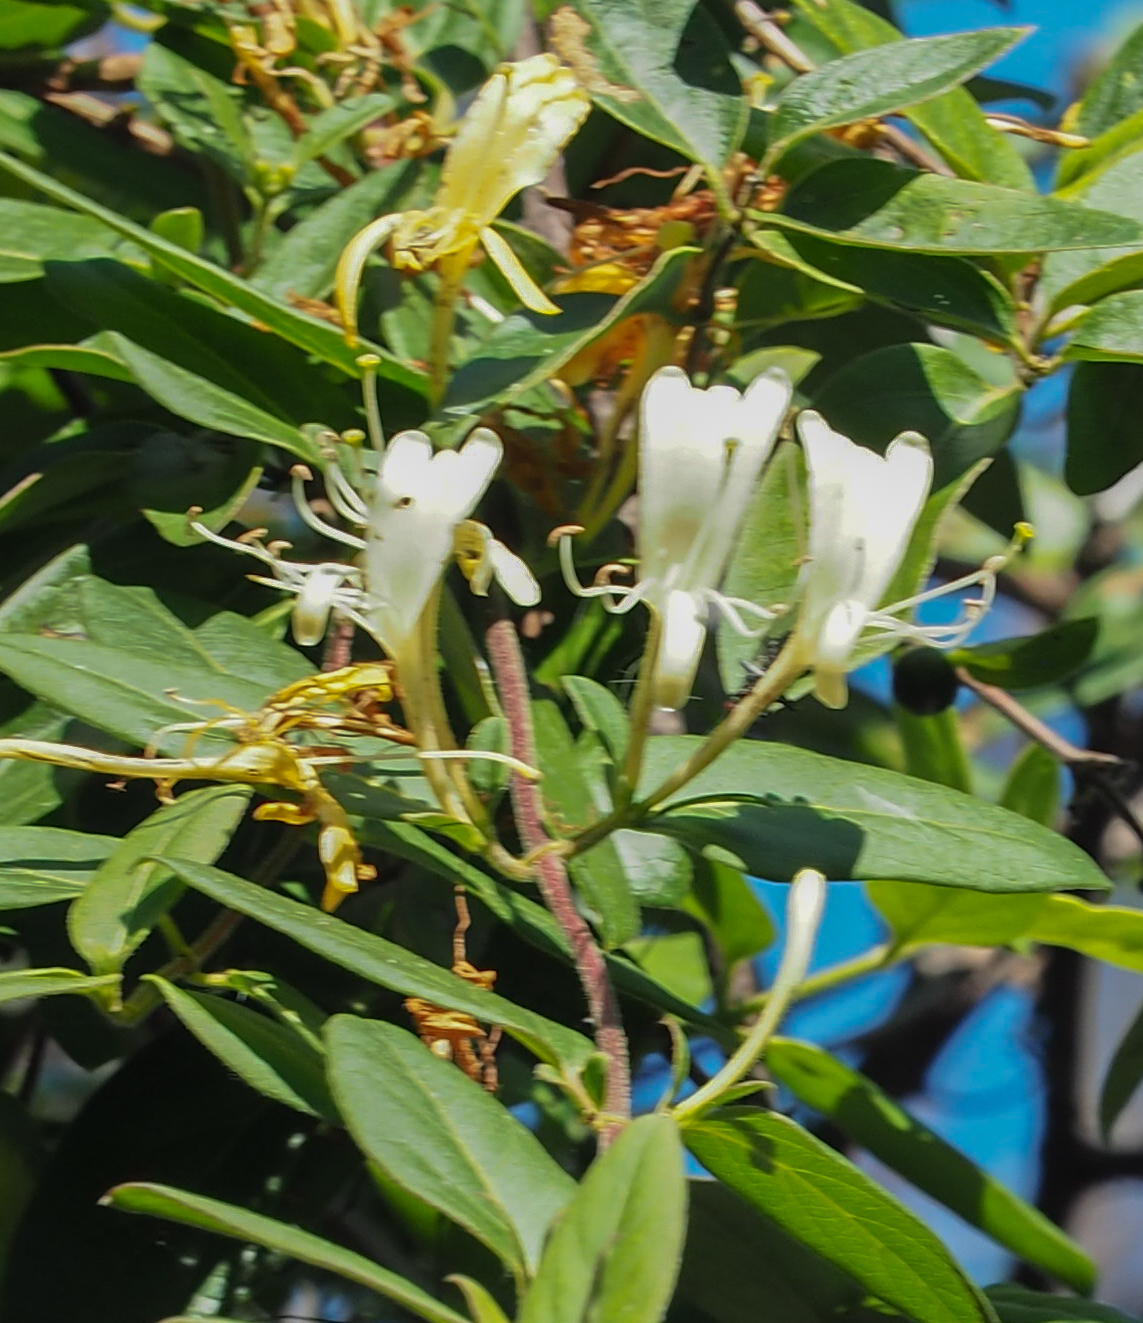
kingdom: Plantae
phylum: Tracheophyta
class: Magnoliopsida
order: Dipsacales
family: Caprifoliaceae
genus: Lonicera
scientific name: Lonicera japonica
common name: Japanese honeysuckle
